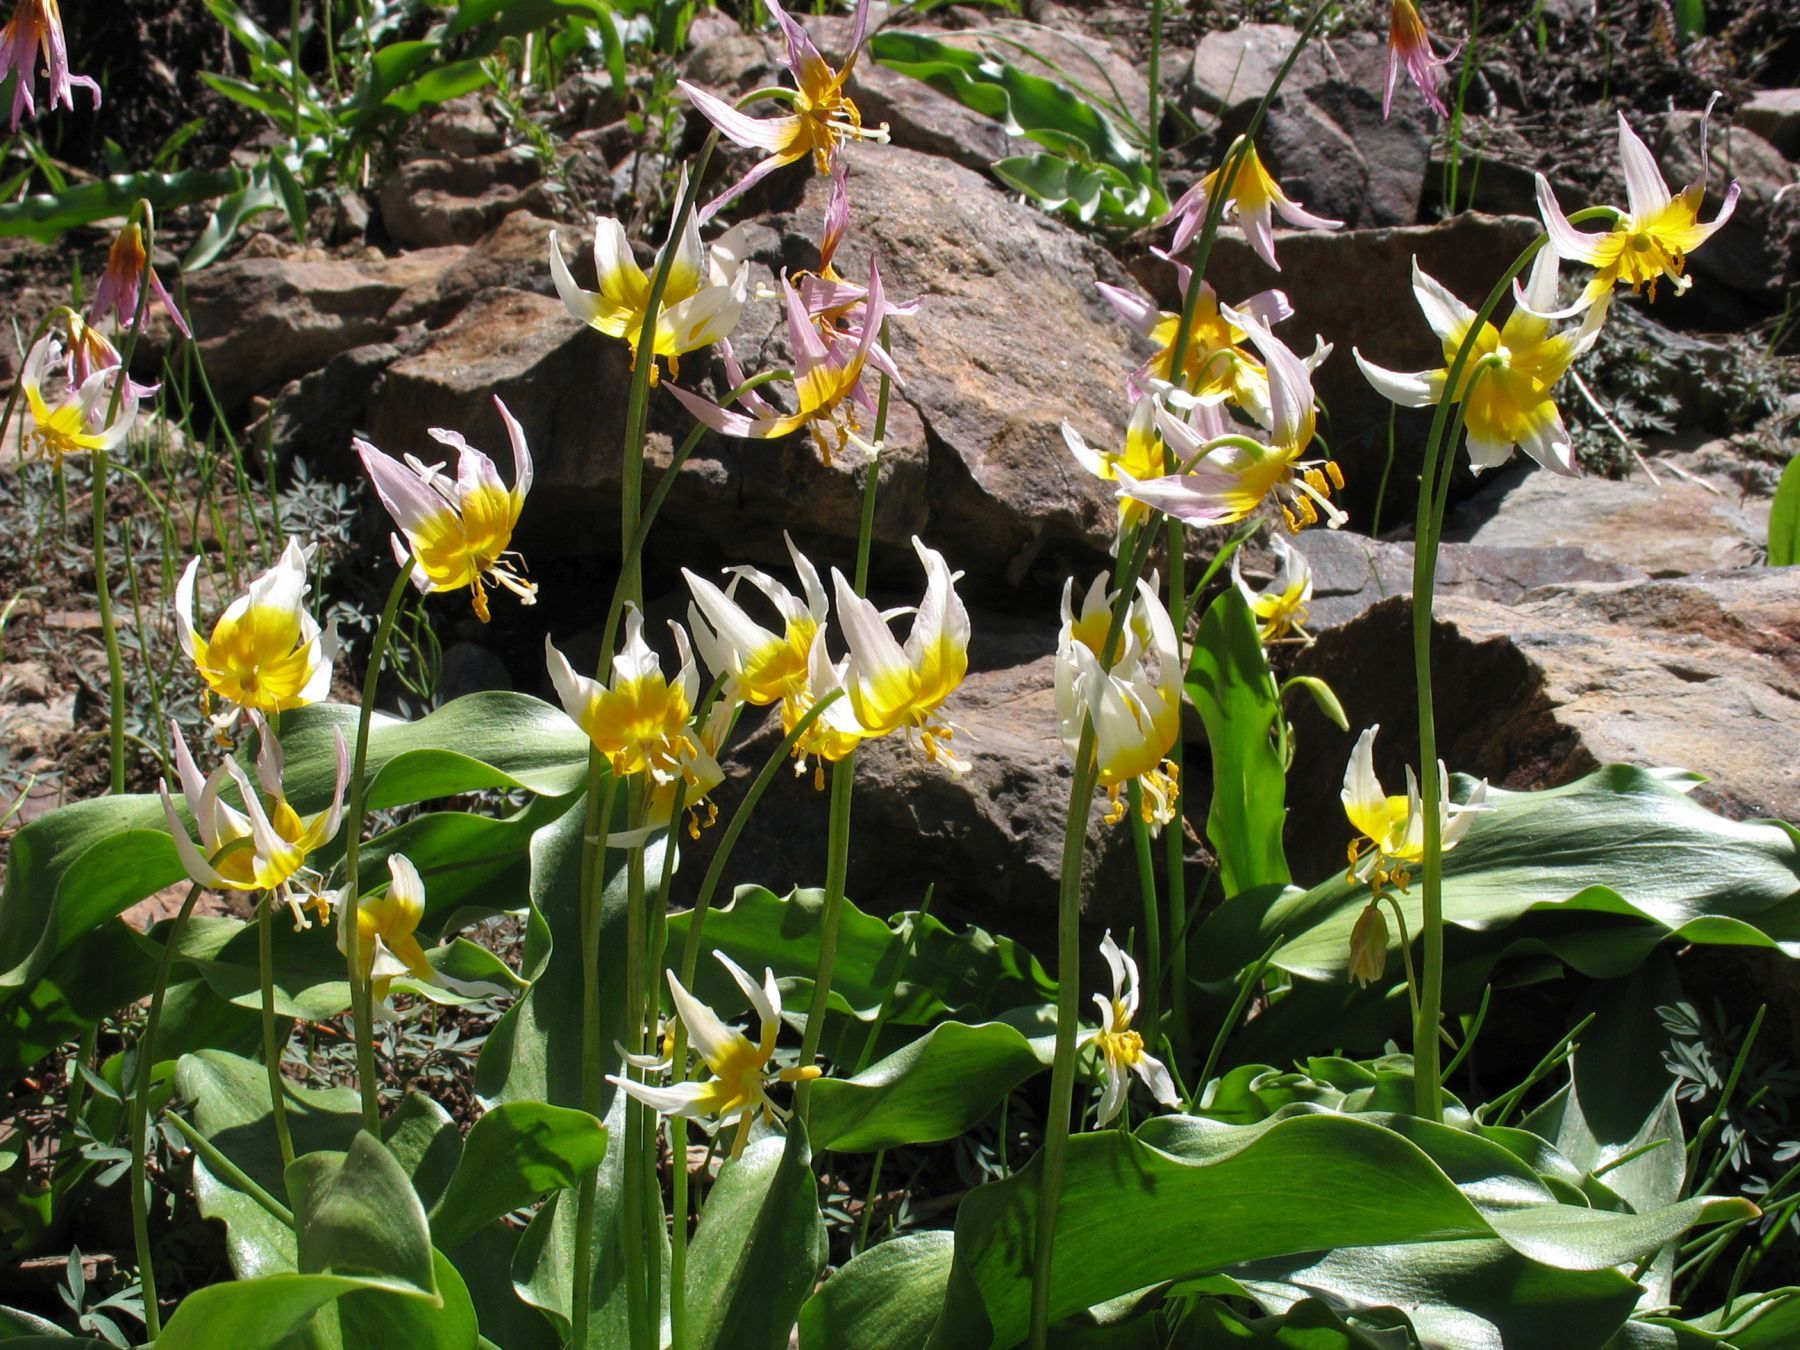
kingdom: Plantae
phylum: Tracheophyta
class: Liliopsida
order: Liliales
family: Liliaceae
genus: Erythronium
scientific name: Erythronium pusaterii
